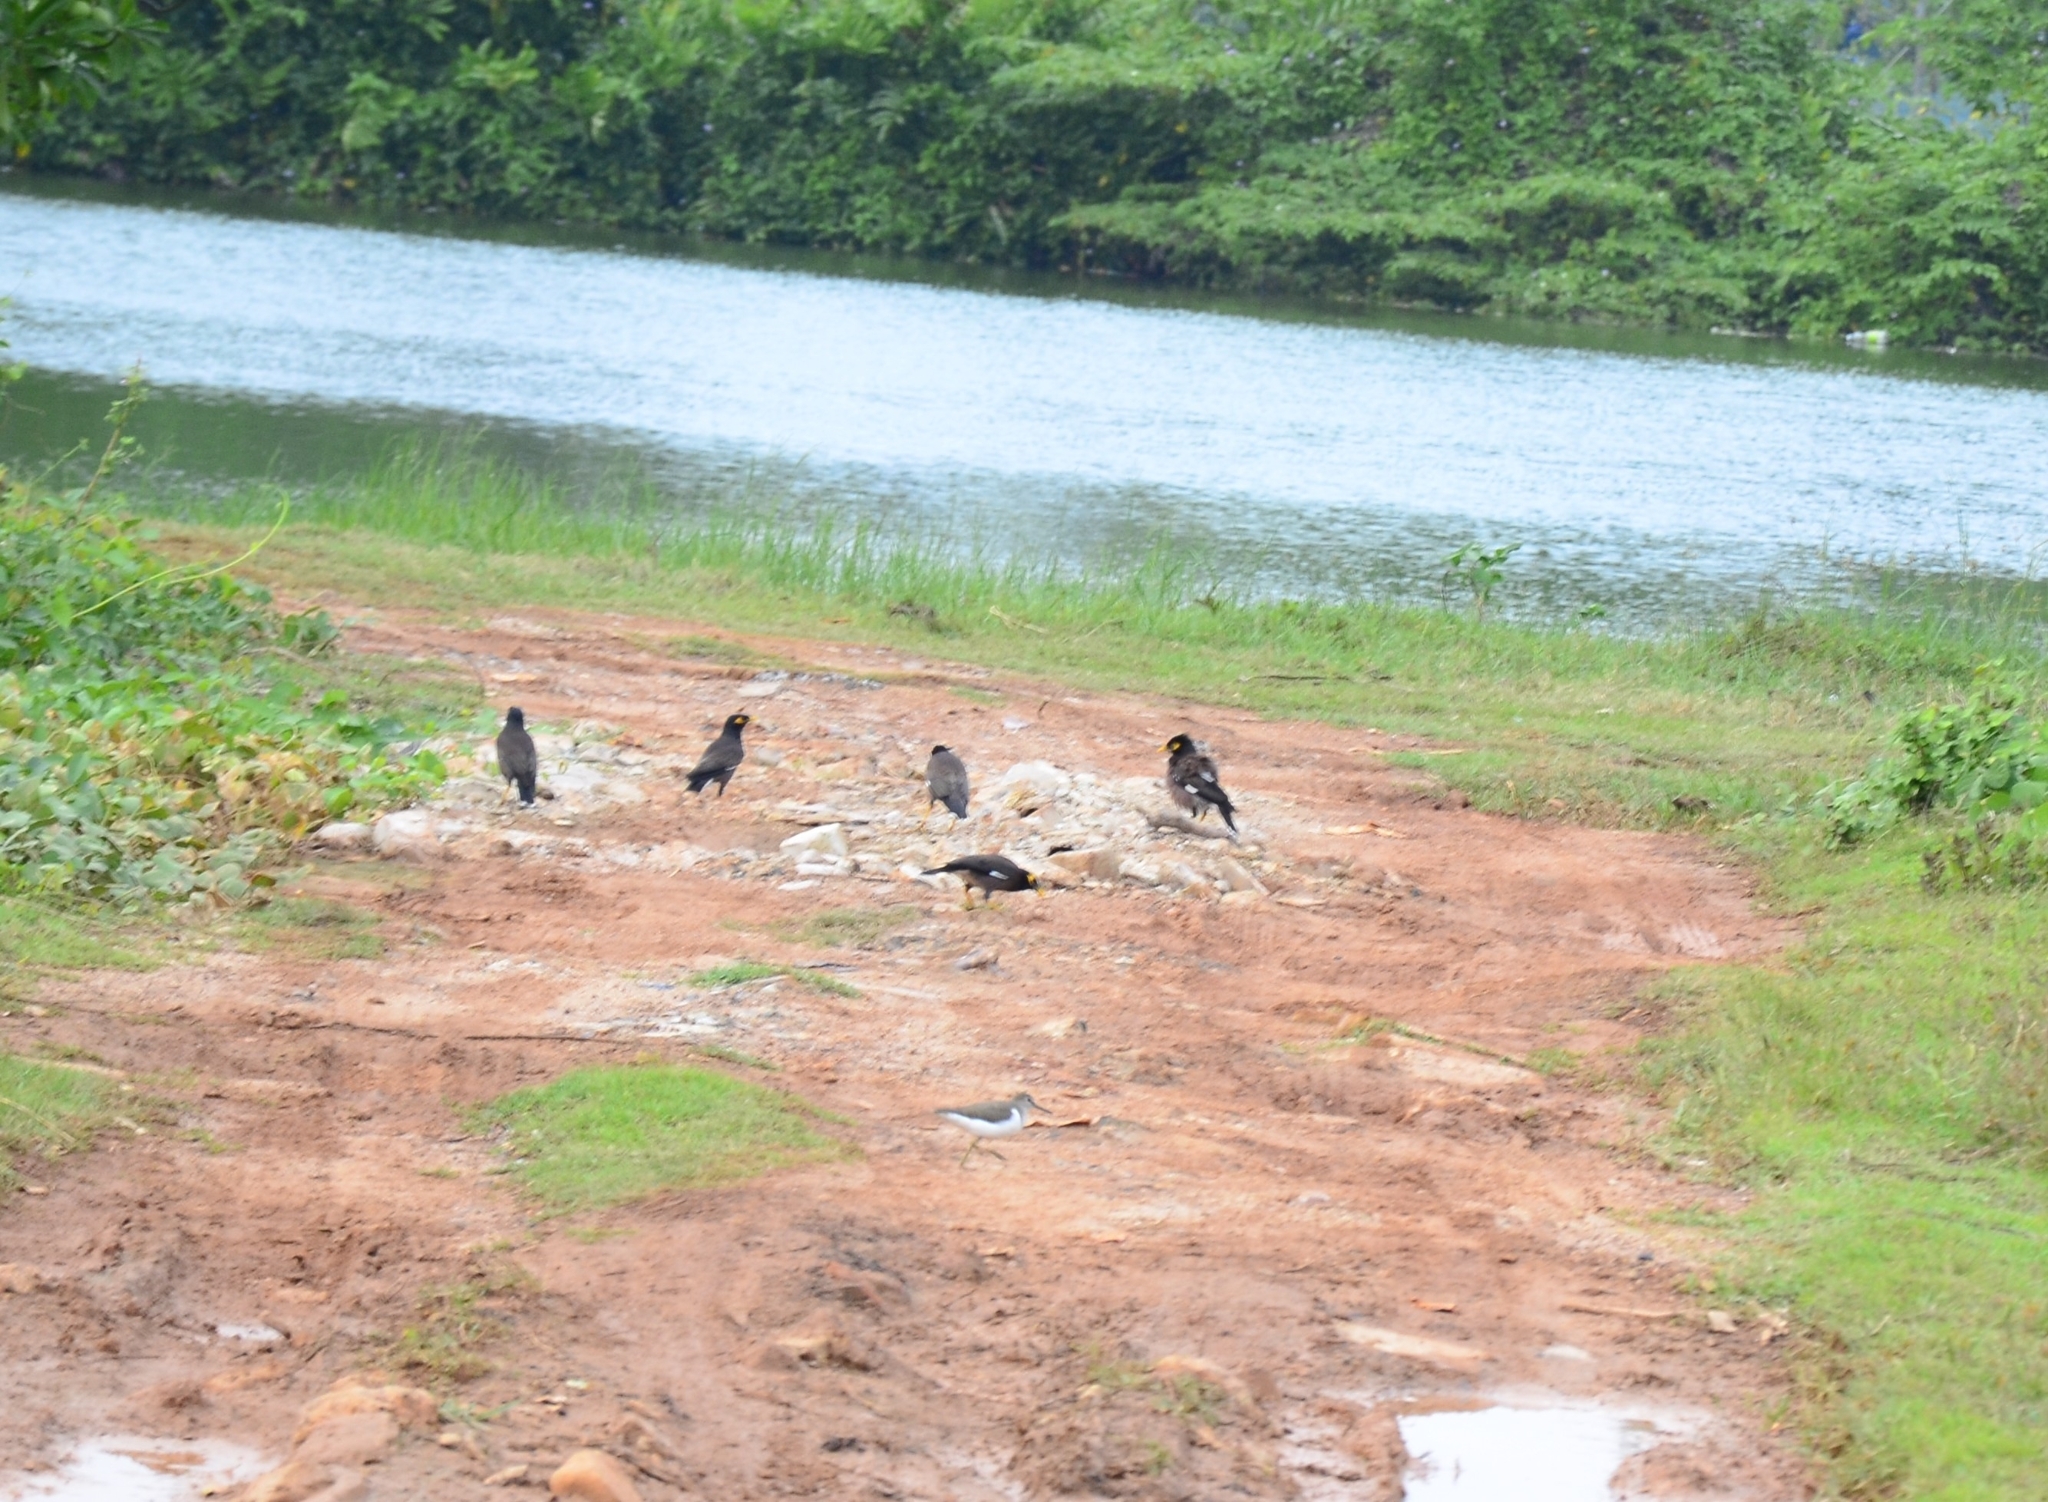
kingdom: Animalia
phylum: Chordata
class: Aves
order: Passeriformes
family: Sturnidae
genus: Acridotheres
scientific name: Acridotheres tristis
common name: Common myna
